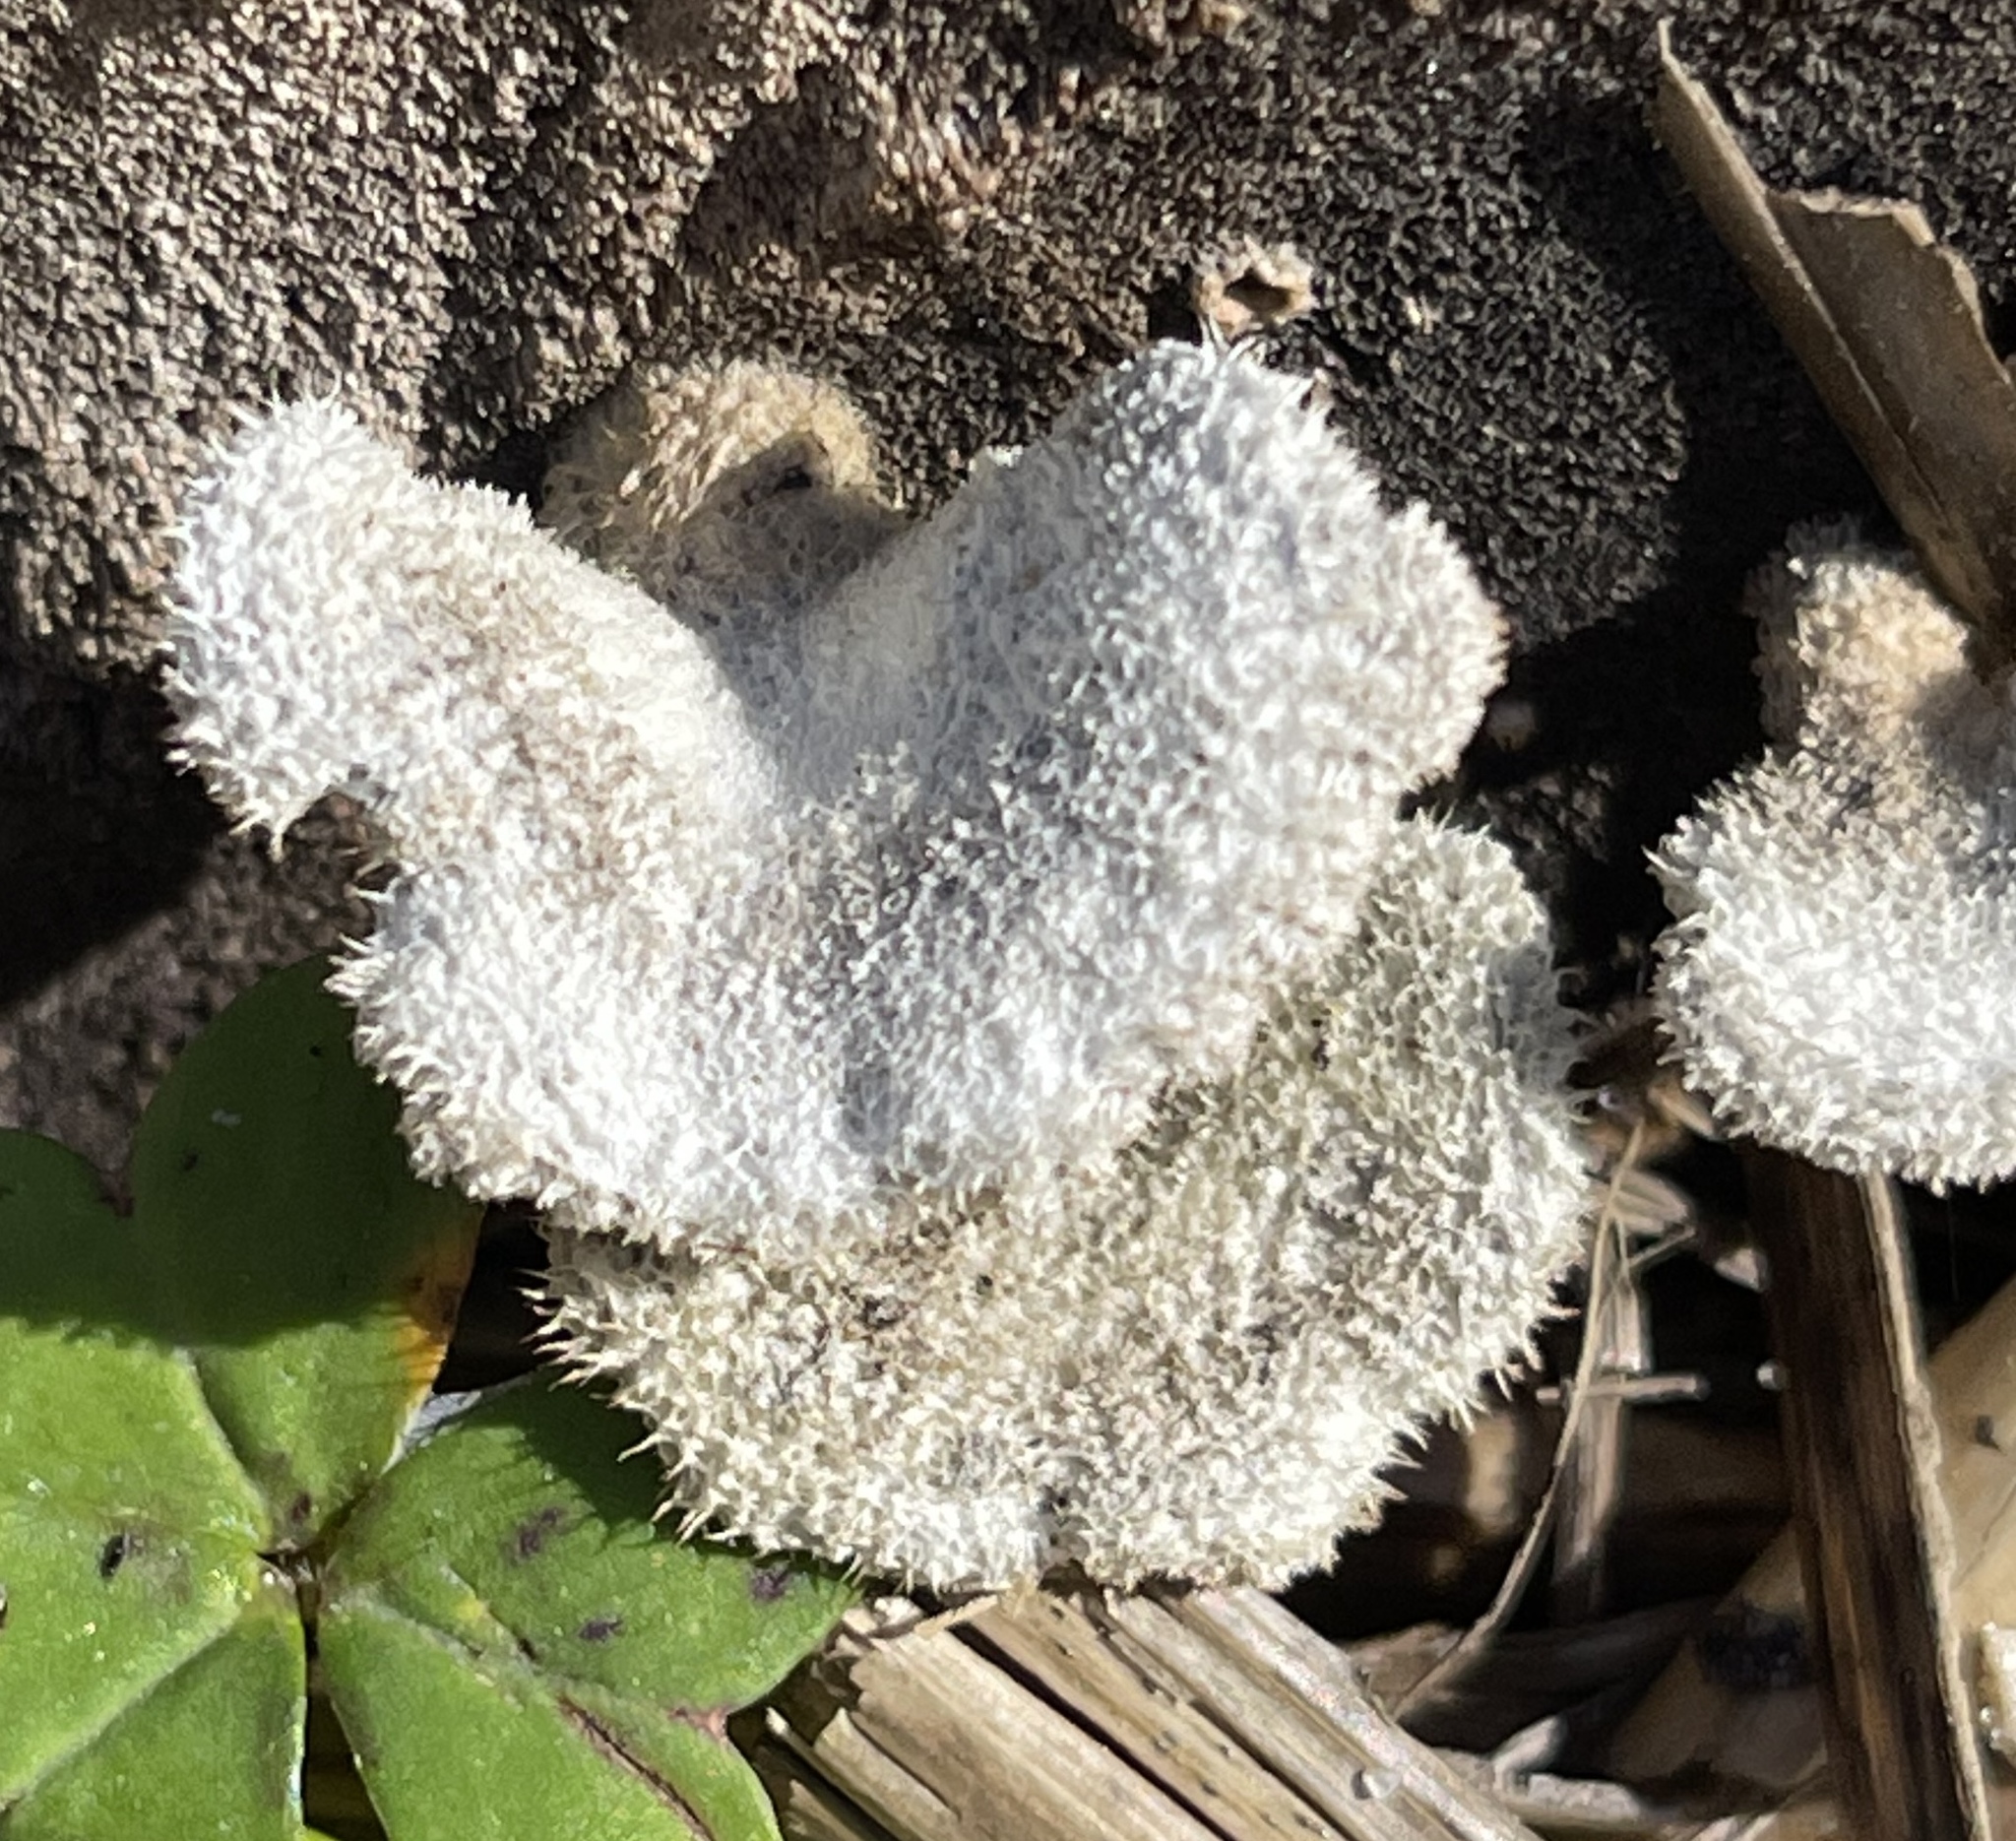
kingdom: Fungi
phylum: Basidiomycota
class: Agaricomycetes
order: Agaricales
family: Schizophyllaceae
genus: Schizophyllum
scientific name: Schizophyllum commune
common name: Common porecrust
